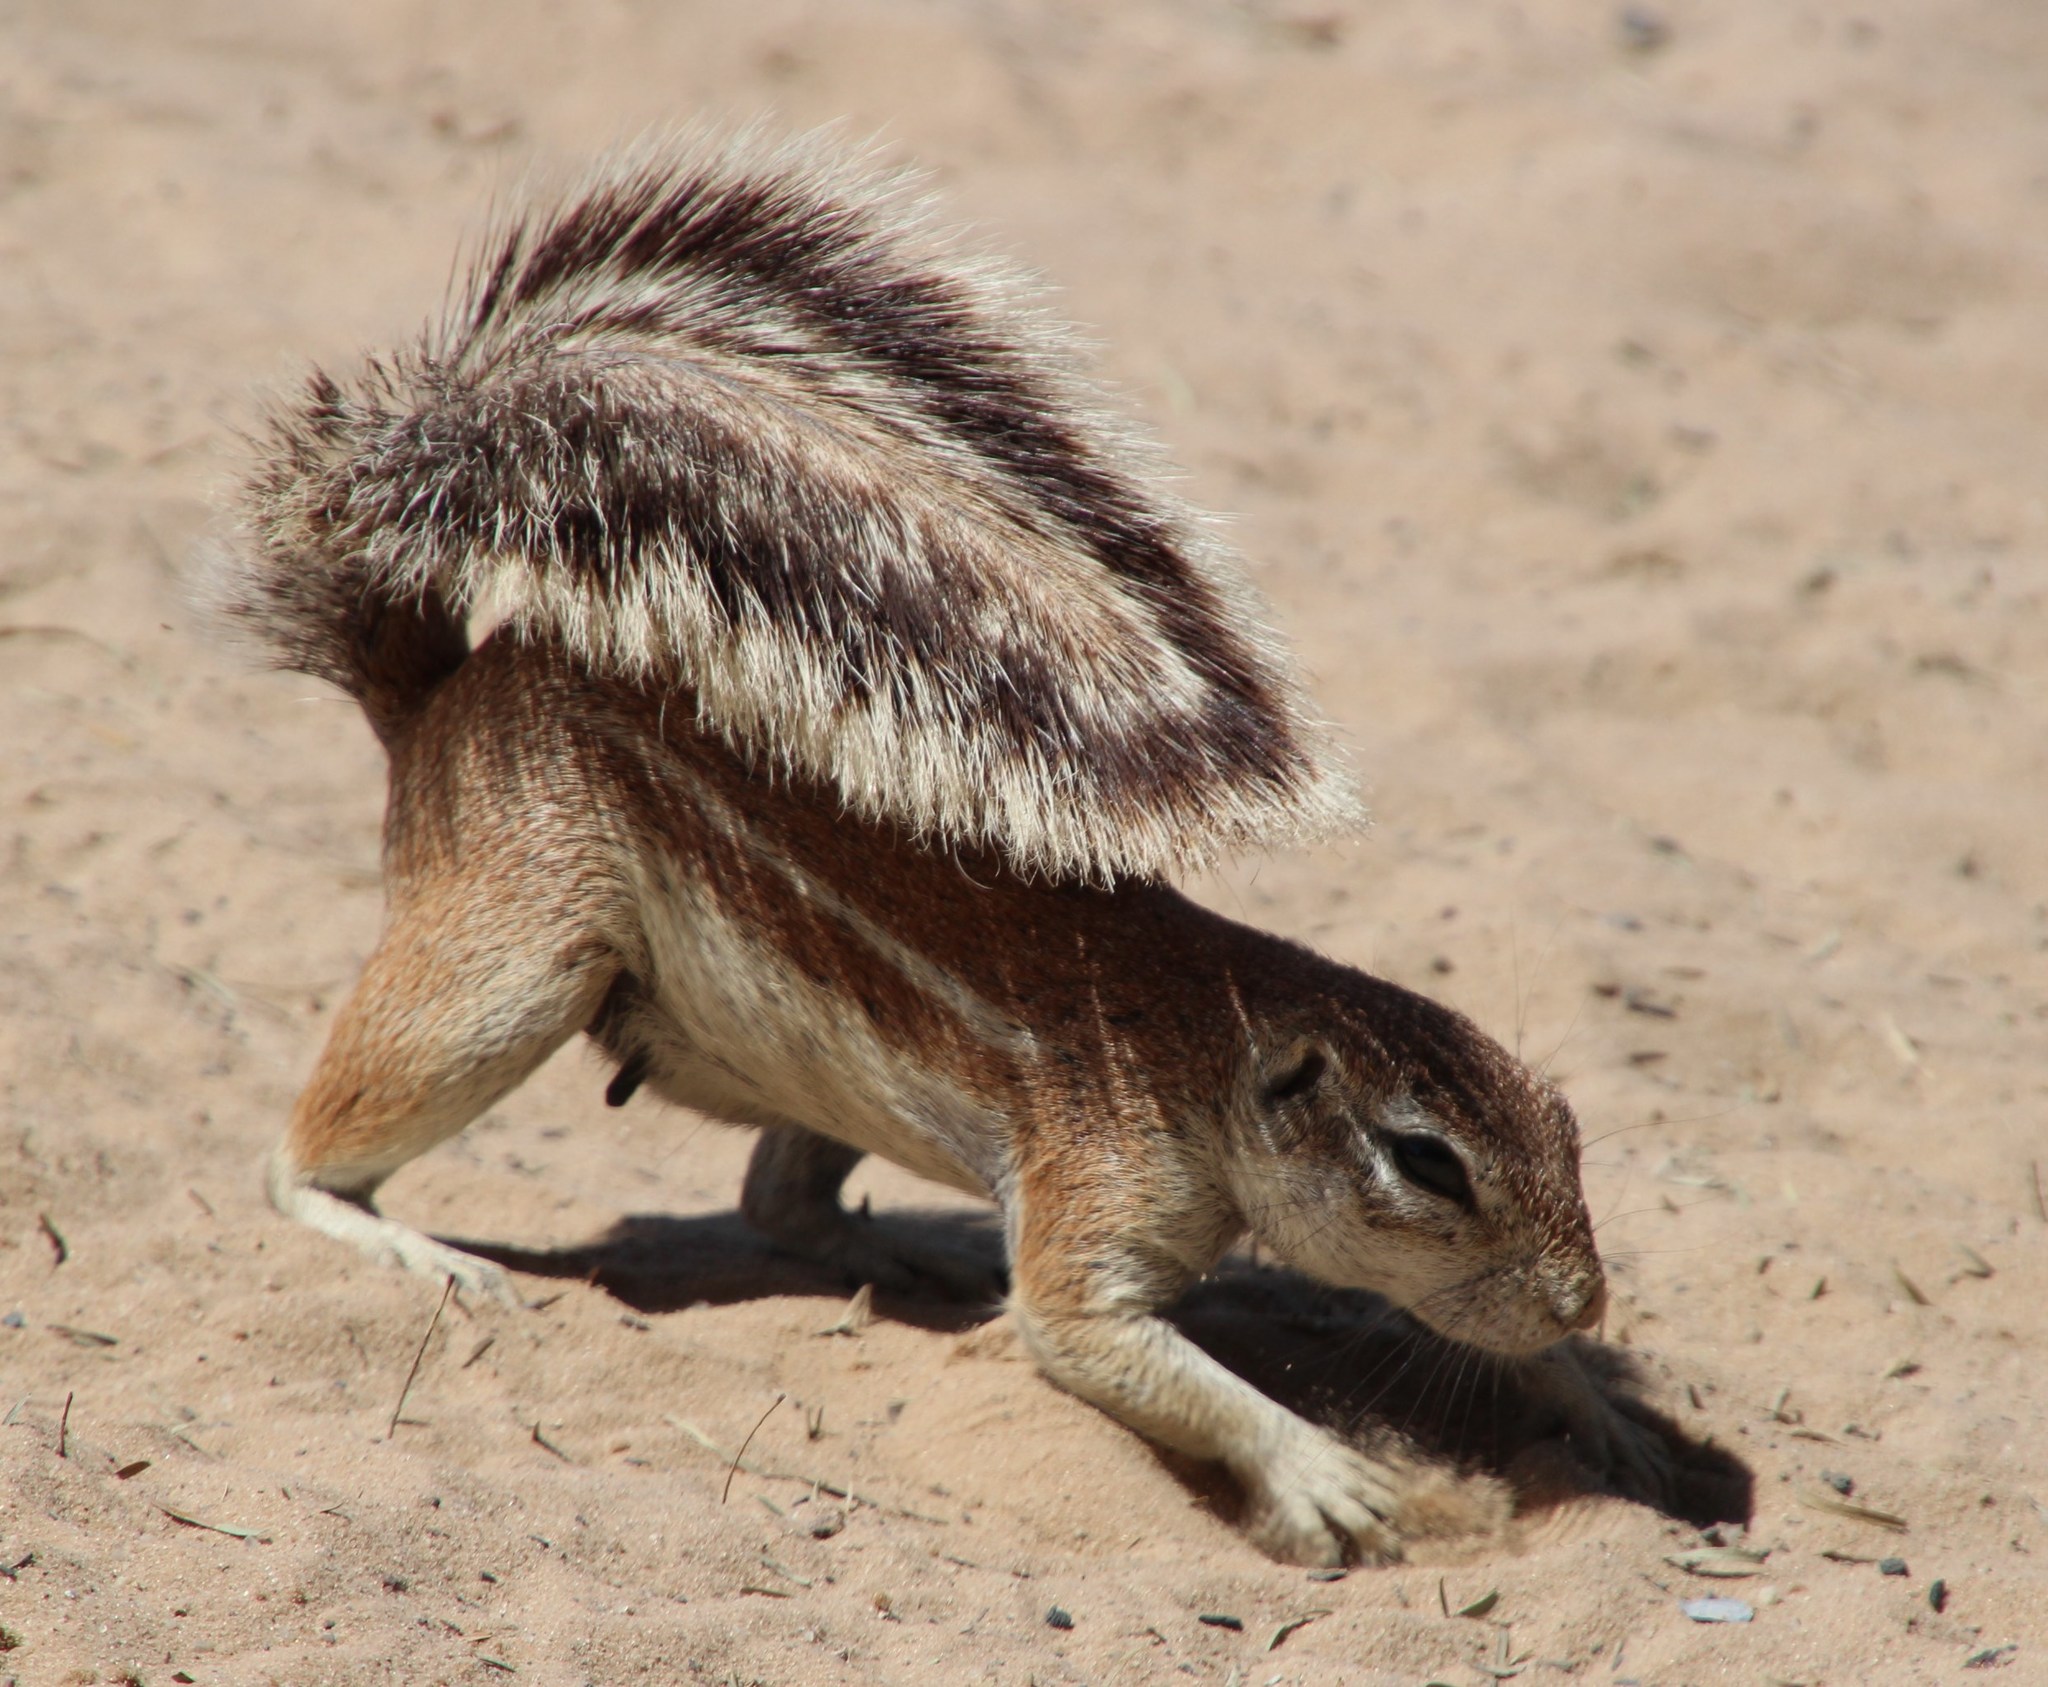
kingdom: Animalia
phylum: Chordata
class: Mammalia
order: Rodentia
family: Sciuridae
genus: Xerus
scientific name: Xerus inauris
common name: South african ground squirrel
